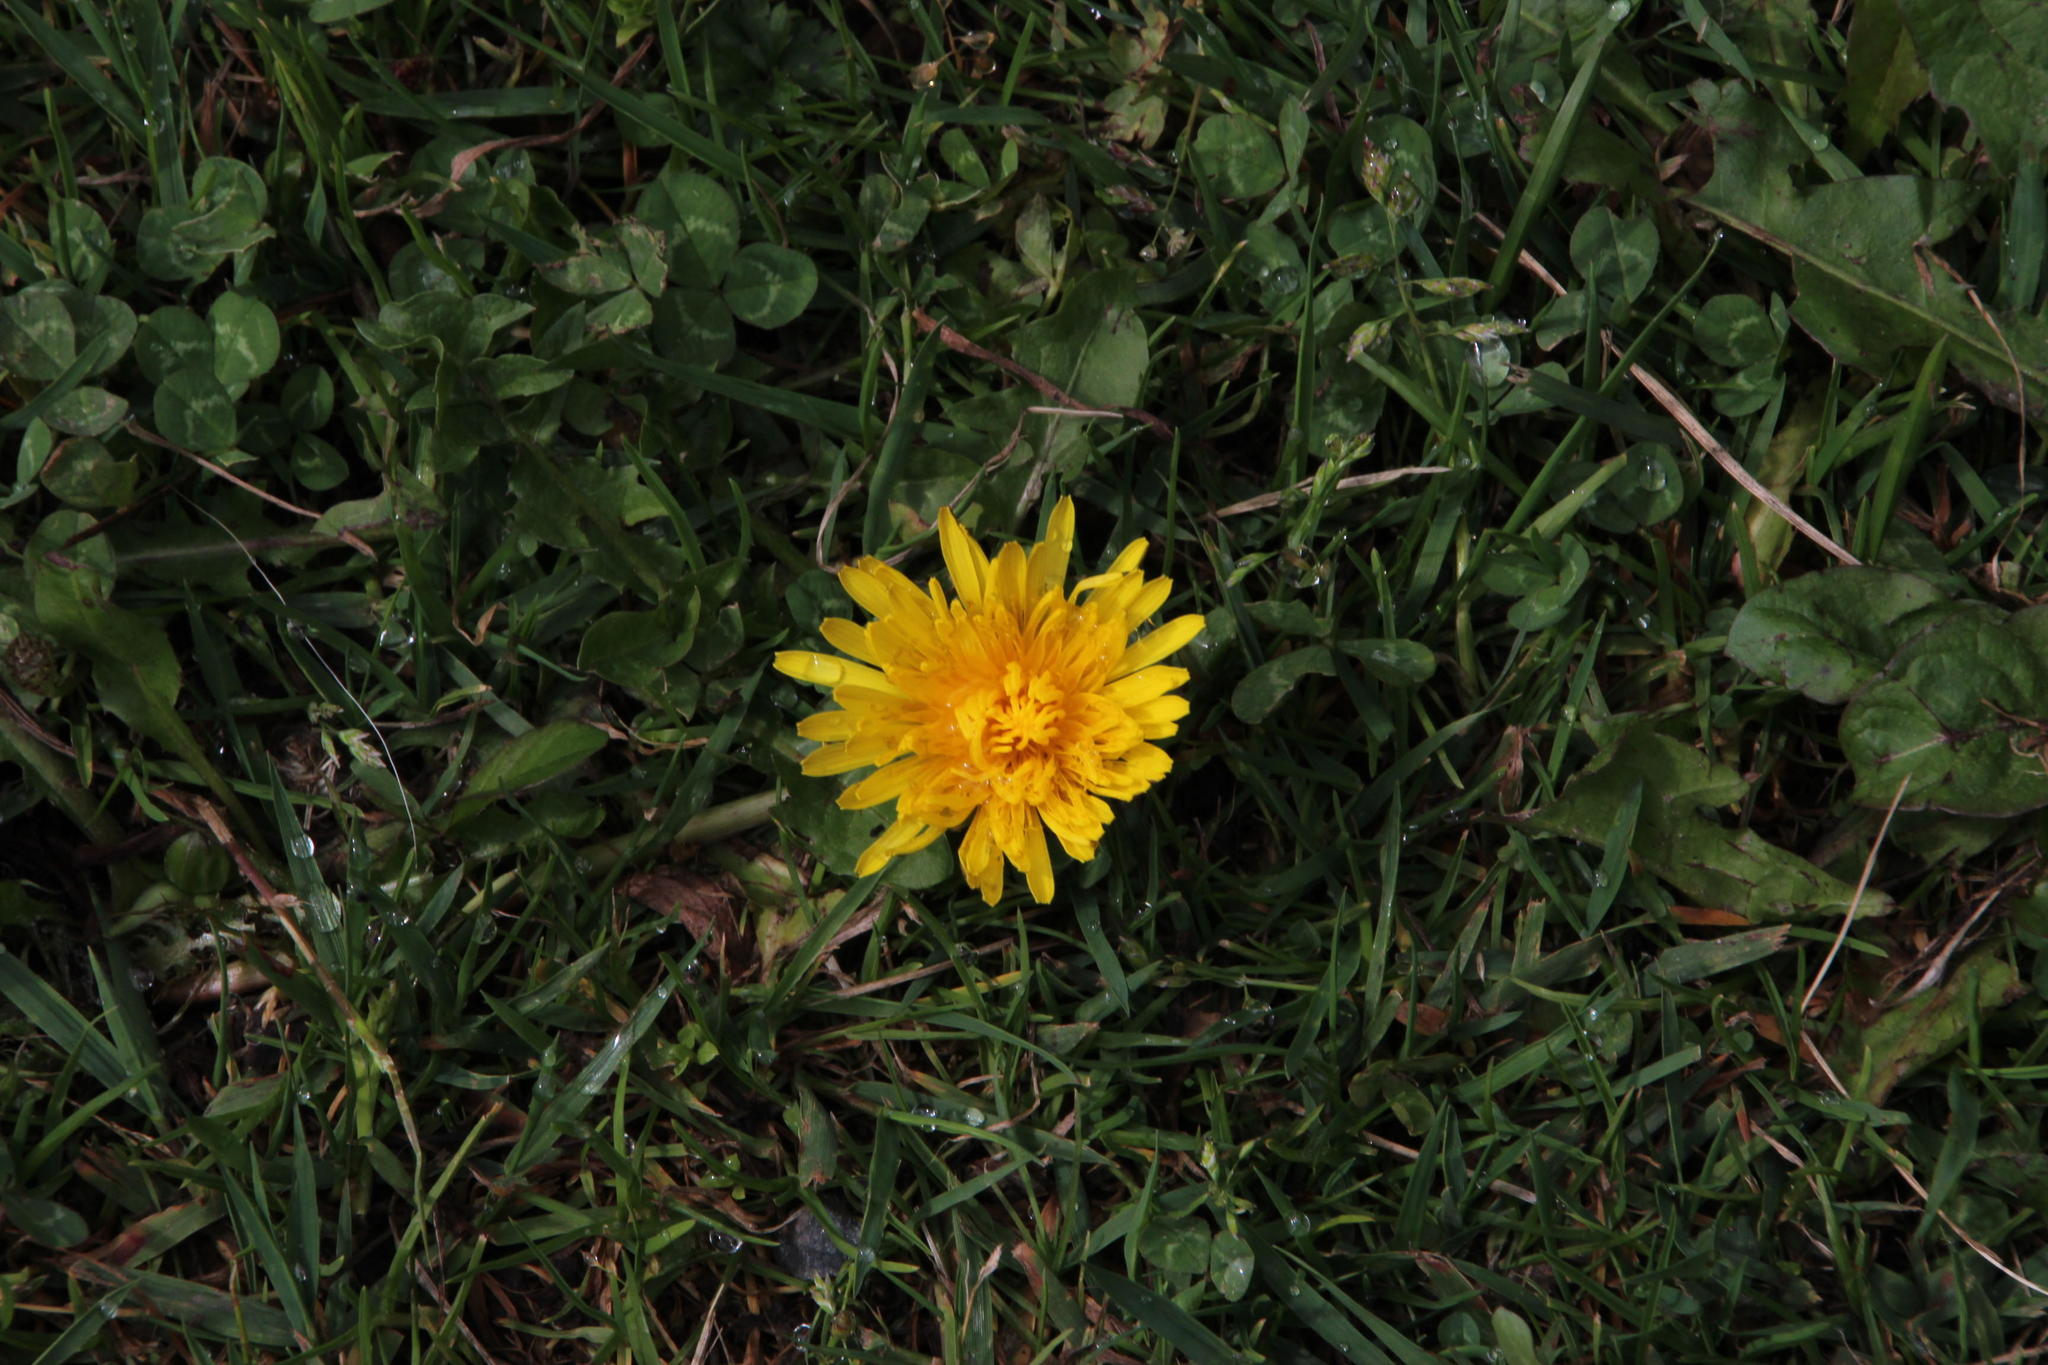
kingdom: Plantae
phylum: Tracheophyta
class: Magnoliopsida
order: Asterales
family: Asteraceae
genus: Taraxacum
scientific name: Taraxacum officinale
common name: Common dandelion
